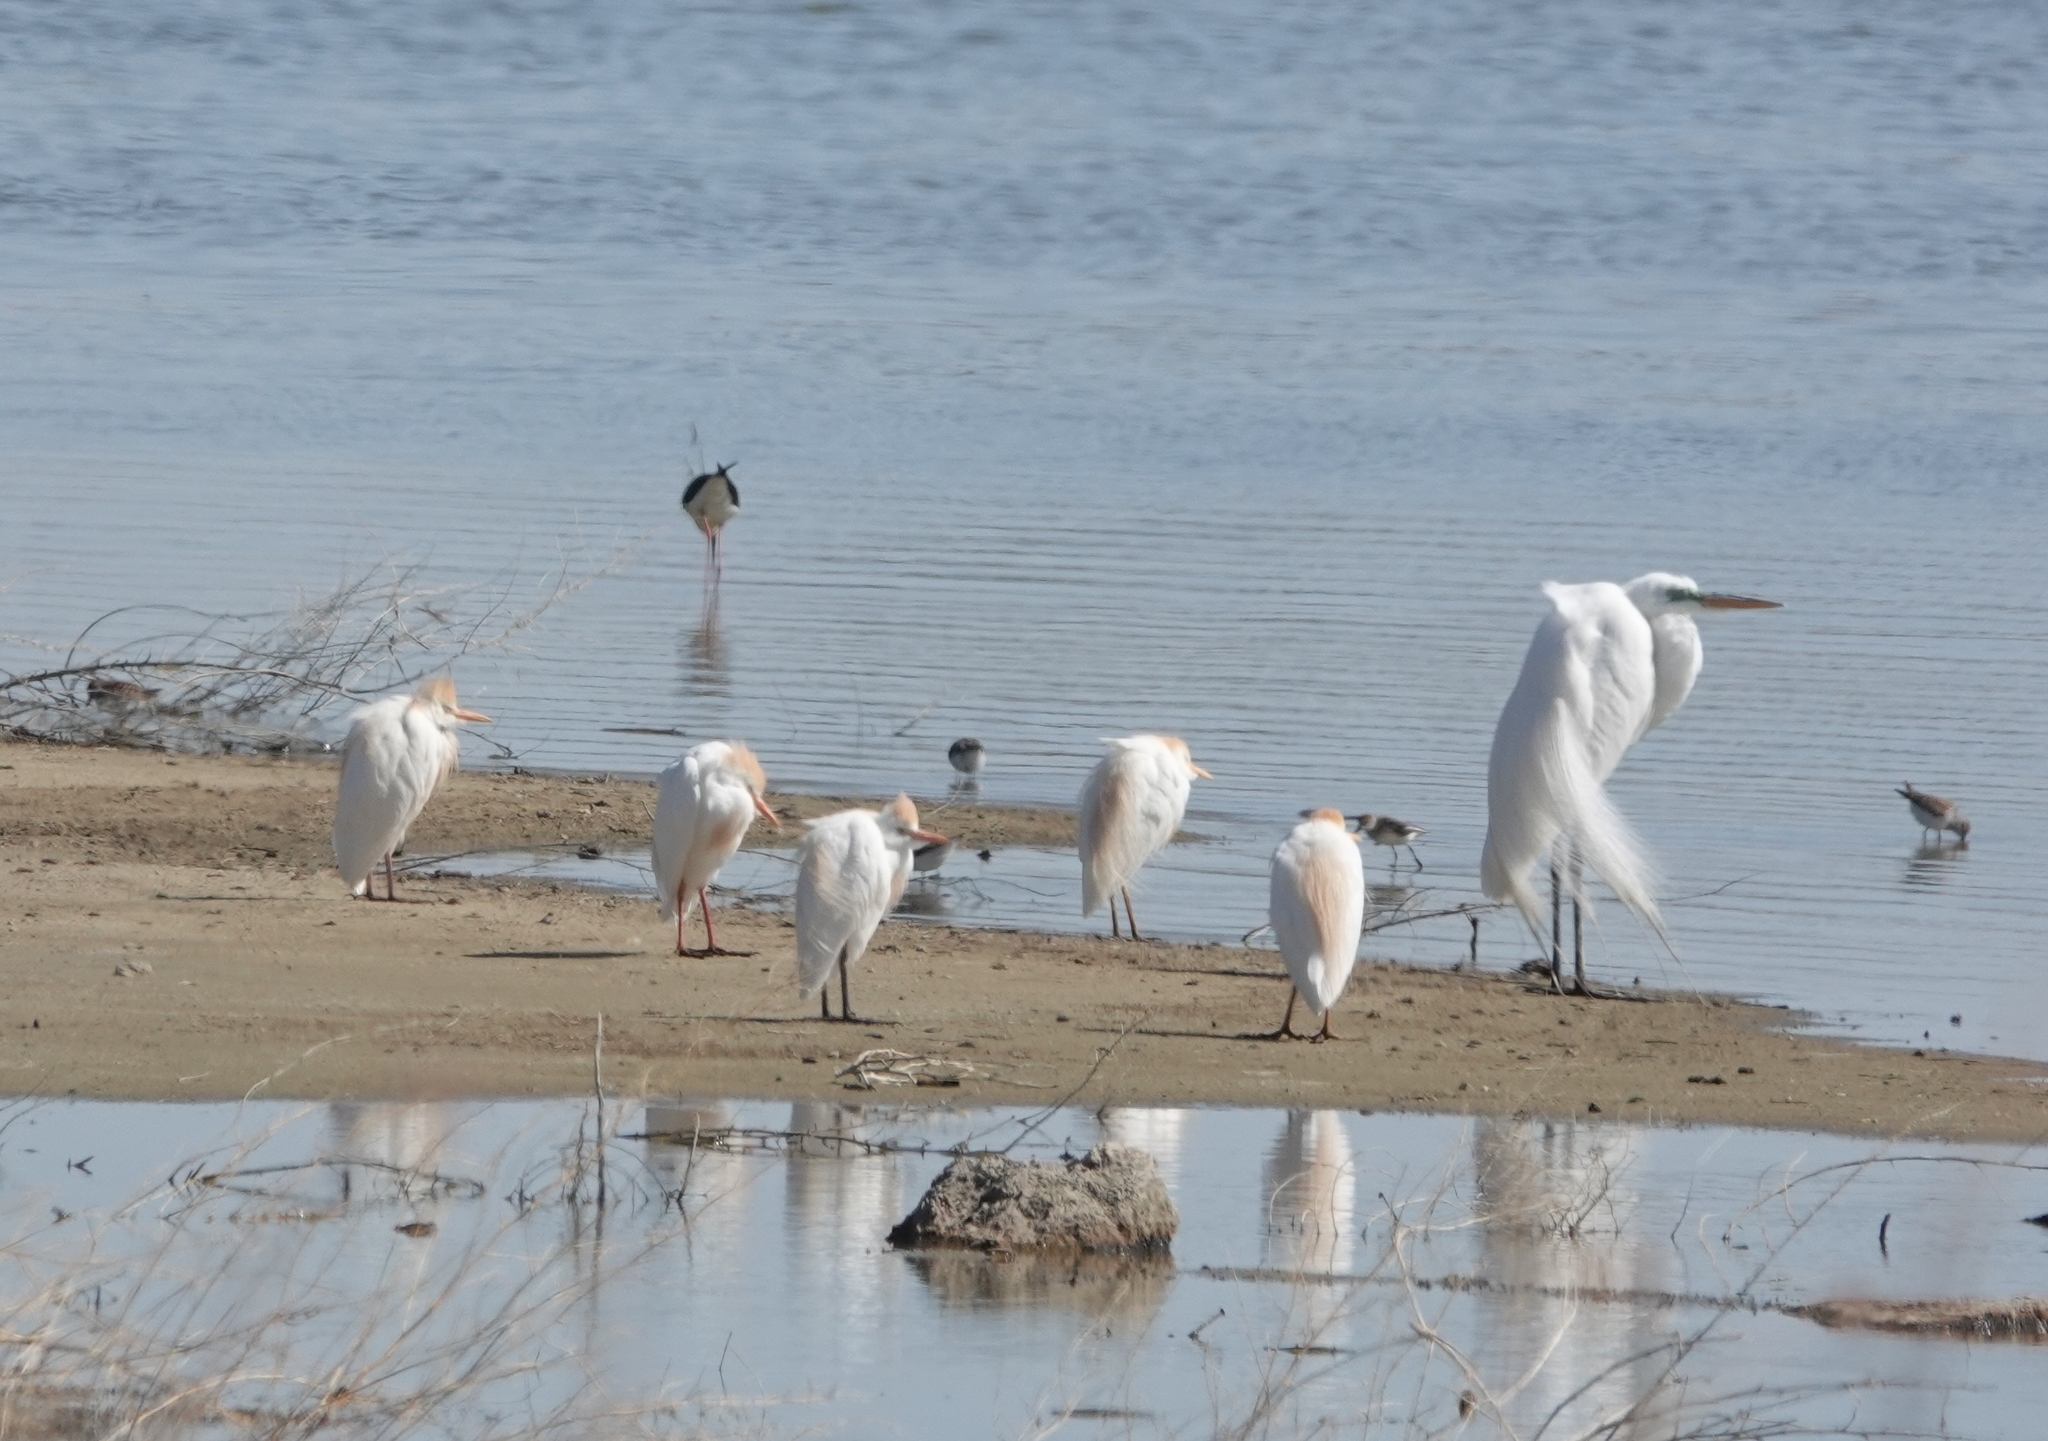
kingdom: Animalia
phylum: Chordata
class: Aves
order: Pelecaniformes
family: Ardeidae
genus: Bubulcus
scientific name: Bubulcus ibis
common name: Cattle egret
